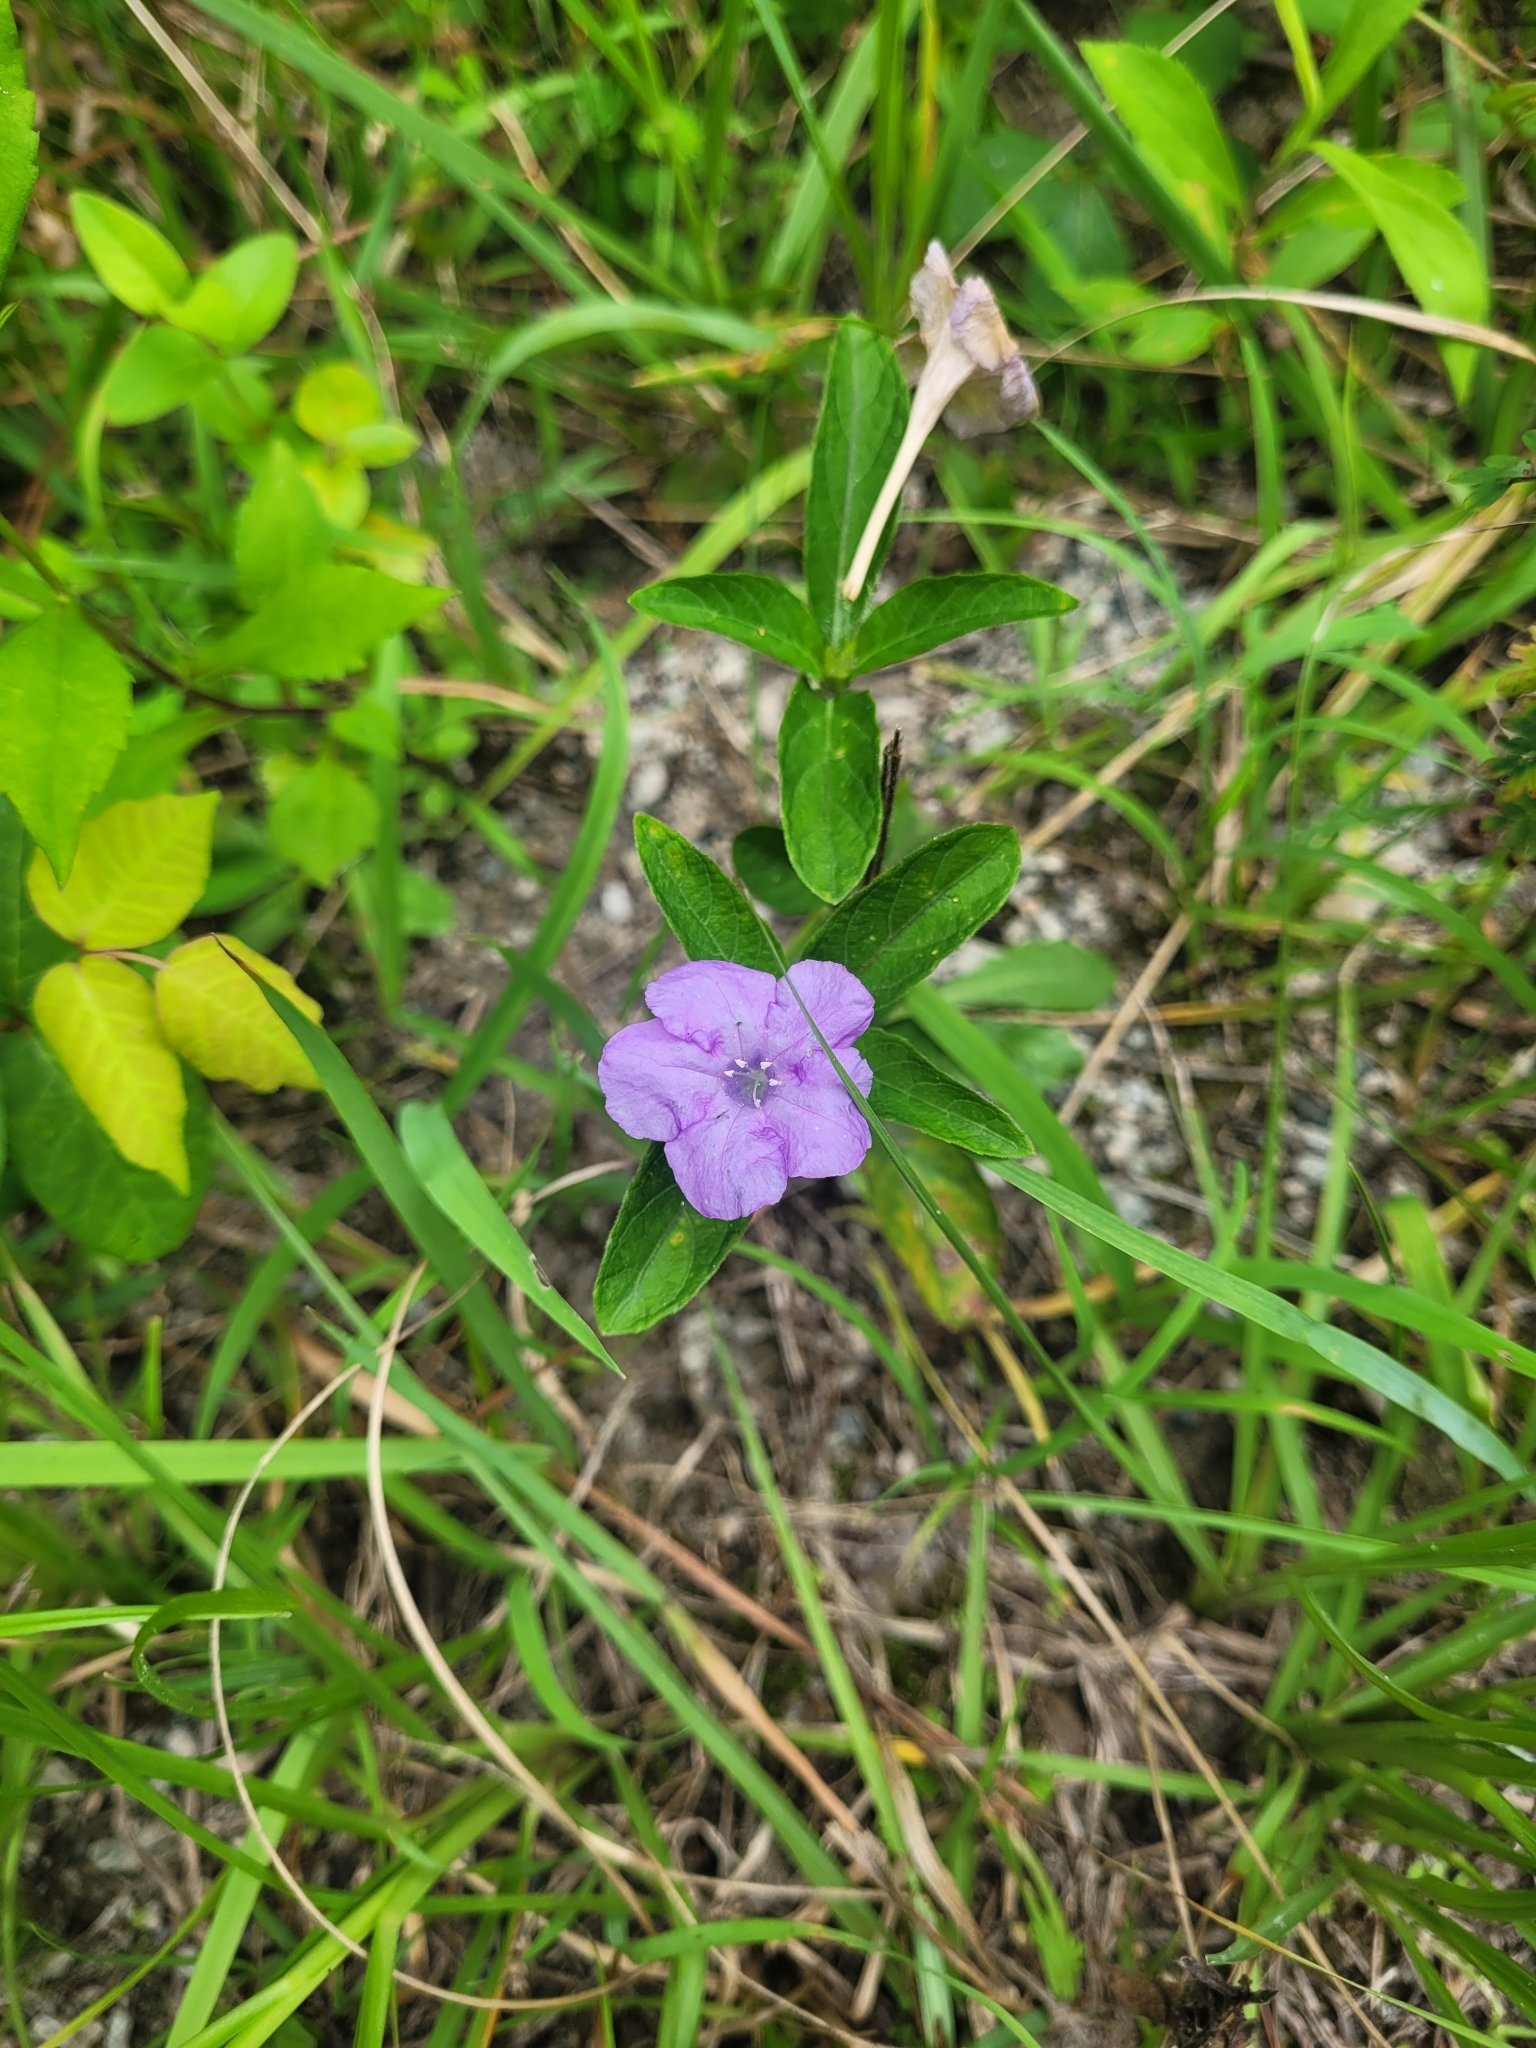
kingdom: Plantae
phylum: Tracheophyta
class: Magnoliopsida
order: Lamiales
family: Acanthaceae
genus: Ruellia
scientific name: Ruellia caroliniensis
